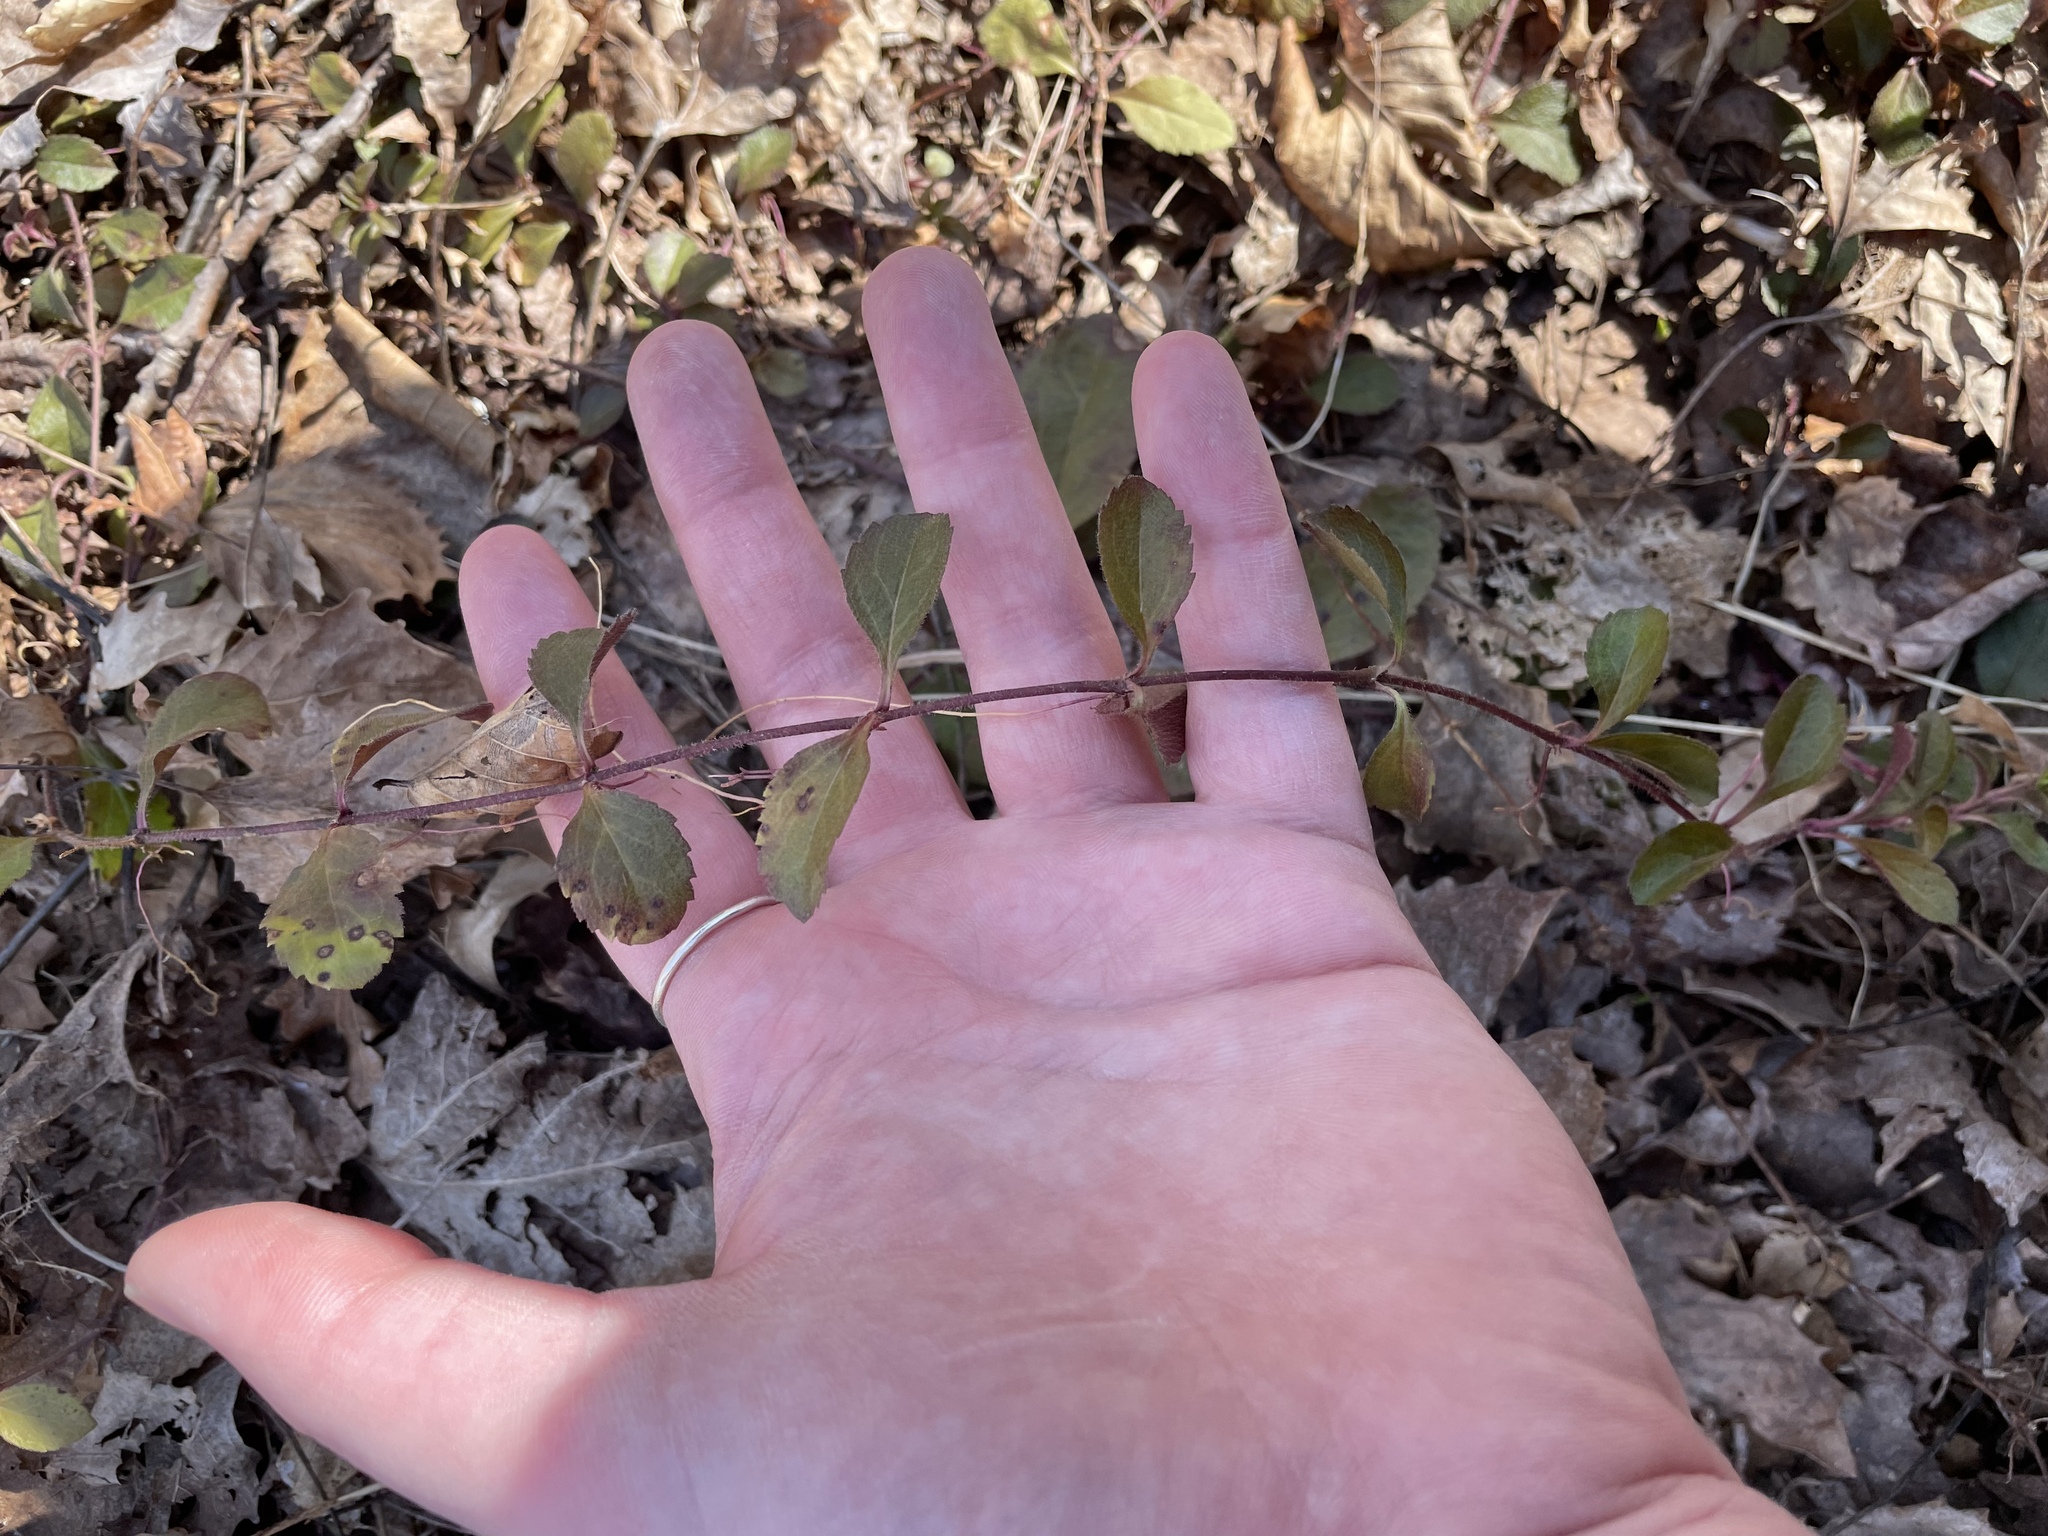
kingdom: Plantae
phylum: Tracheophyta
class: Magnoliopsida
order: Lamiales
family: Plantaginaceae
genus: Veronica
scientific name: Veronica officinalis
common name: Common speedwell
